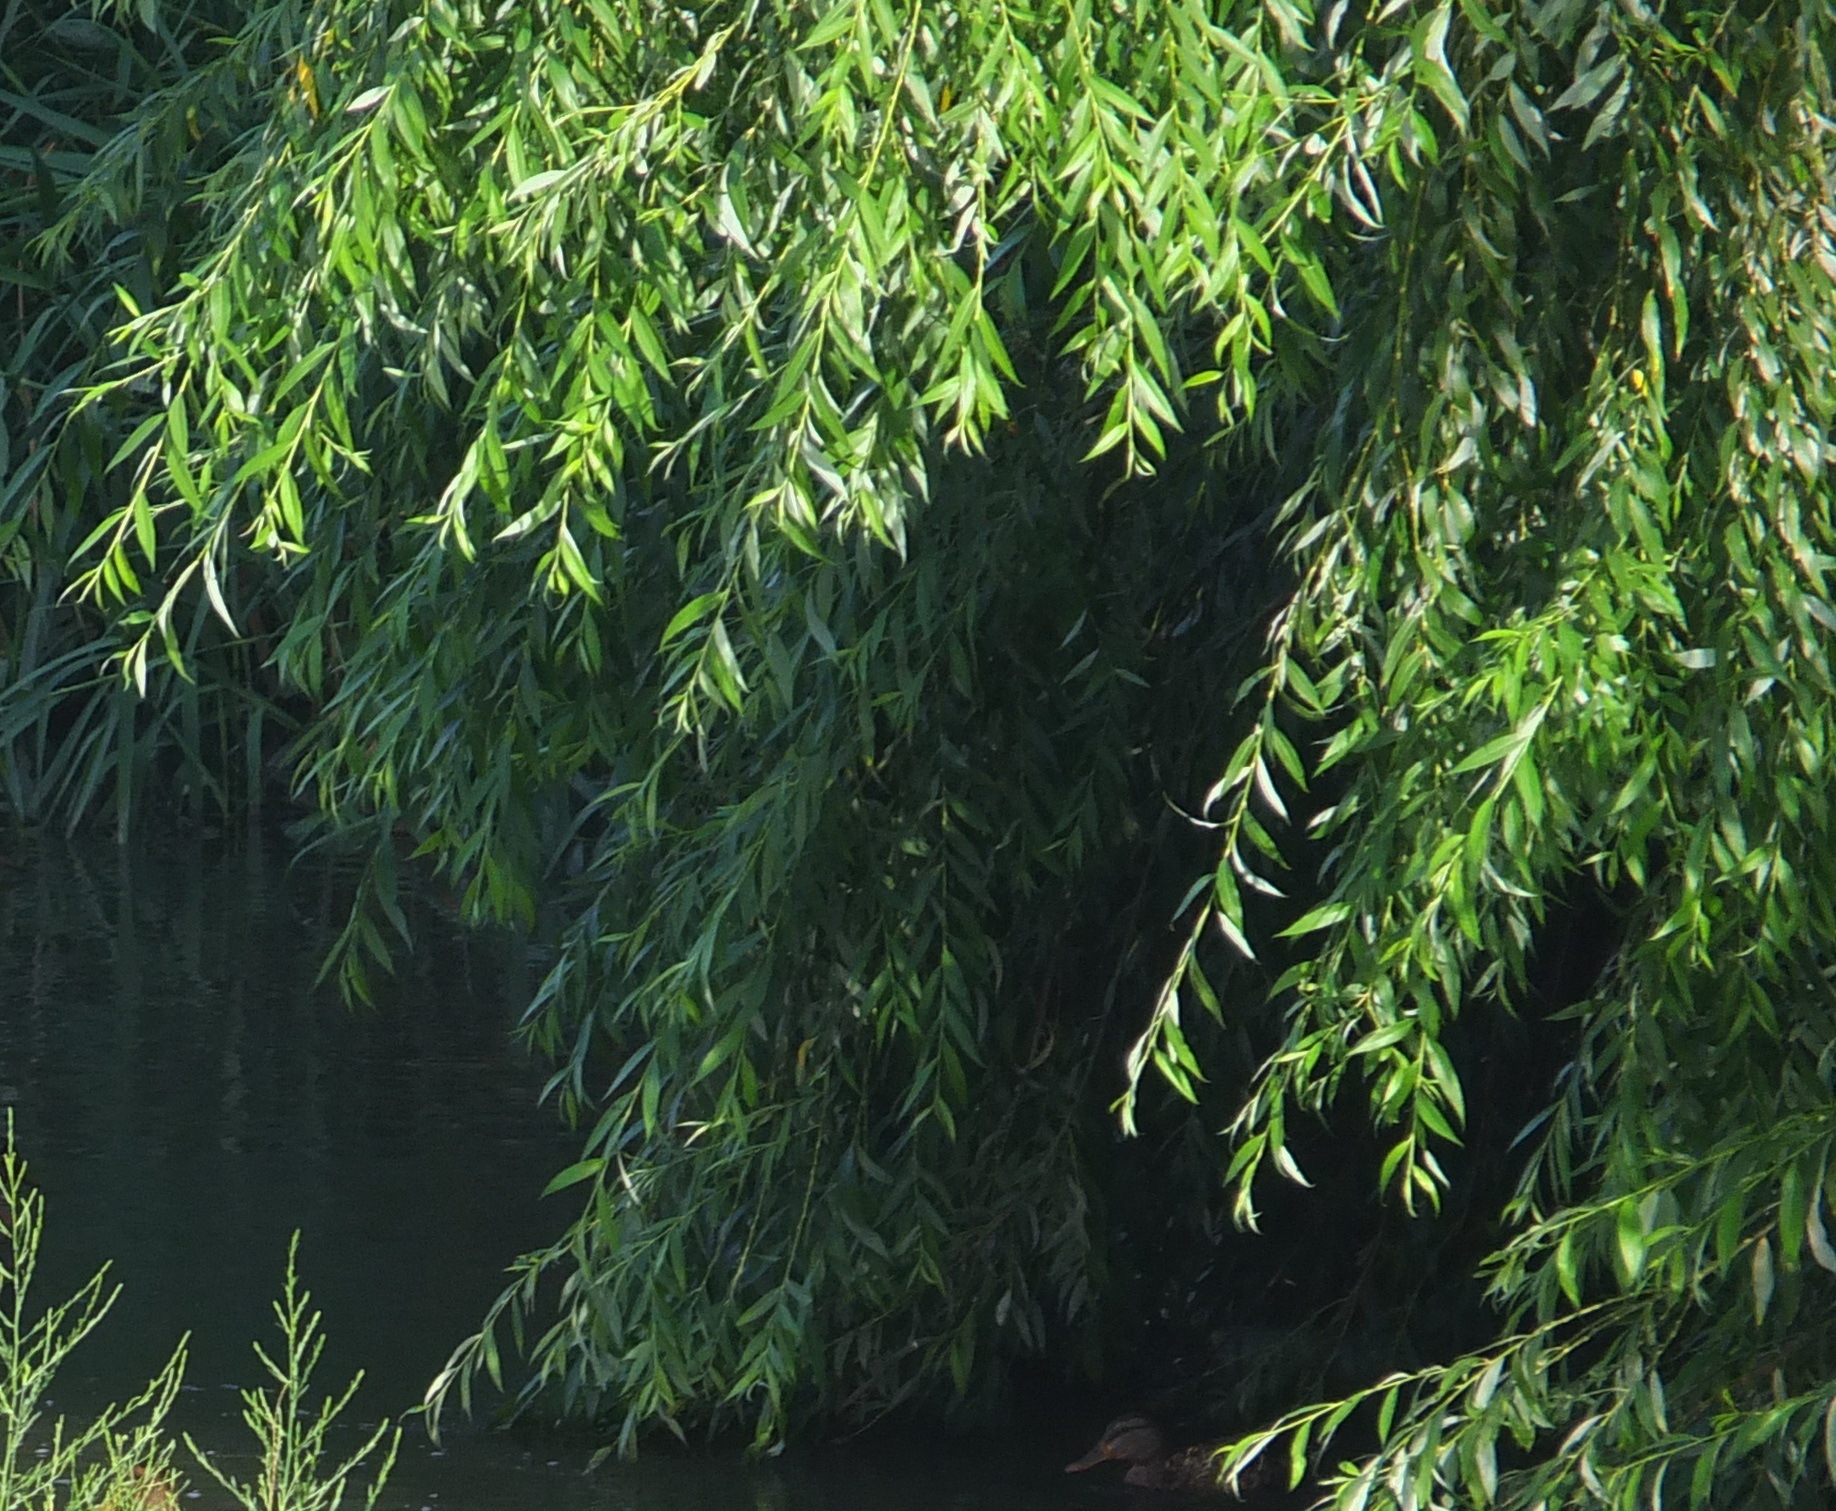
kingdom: Plantae
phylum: Tracheophyta
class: Magnoliopsida
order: Malpighiales
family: Salicaceae
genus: Salix
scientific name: Salix babylonica
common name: Weeping willow
